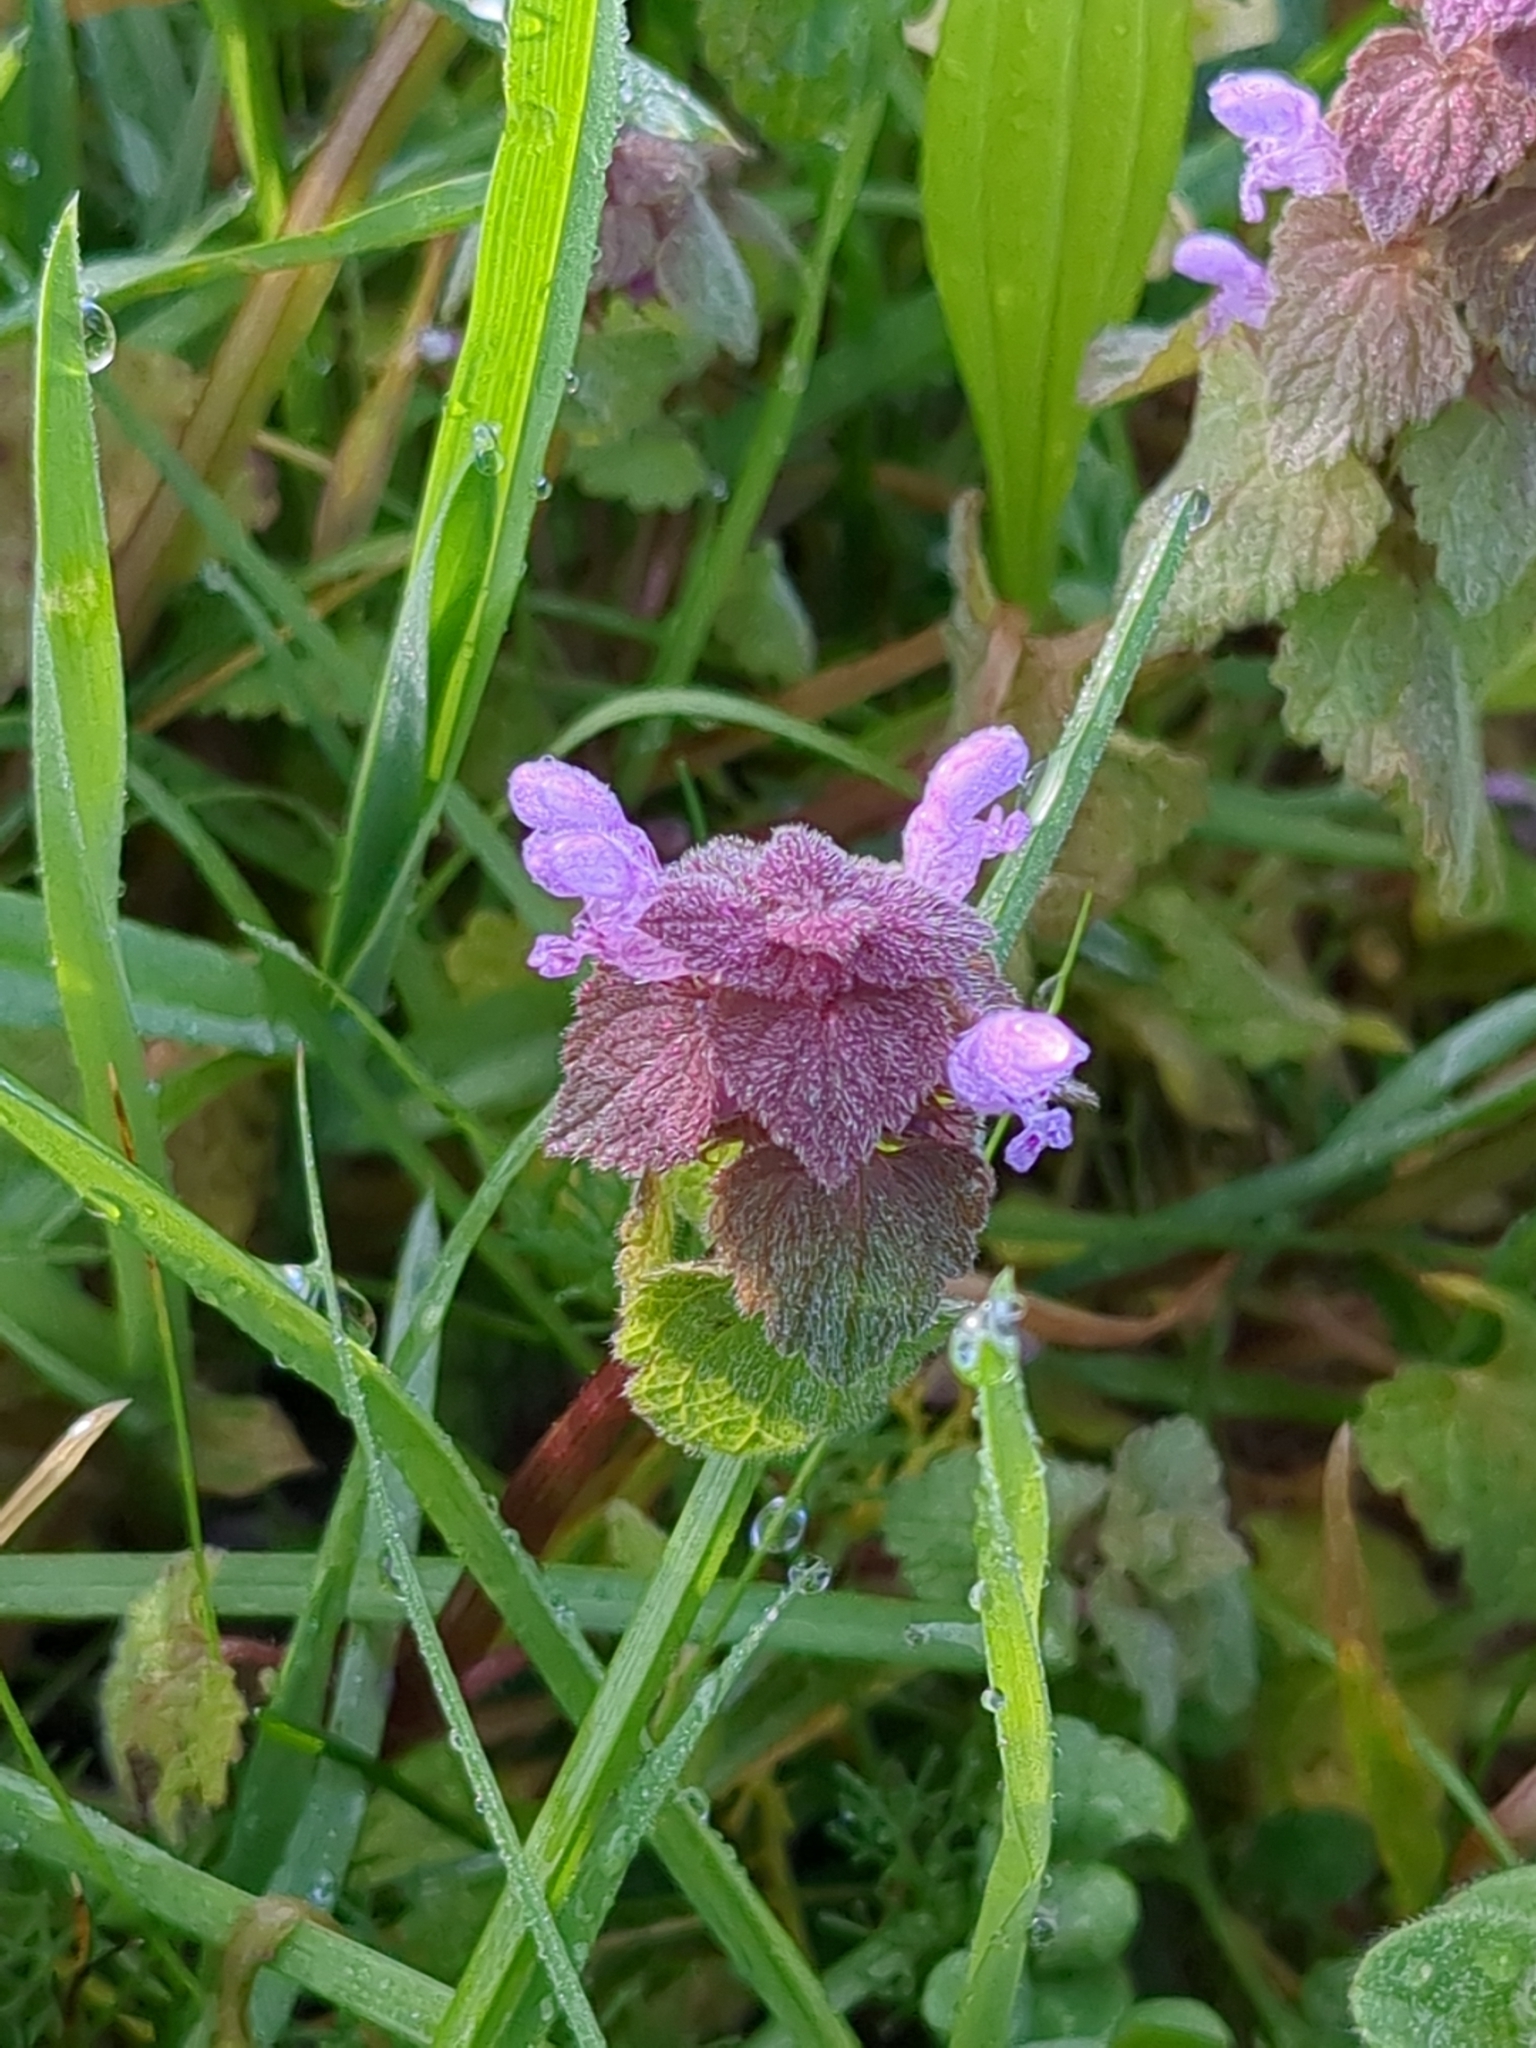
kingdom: Plantae
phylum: Tracheophyta
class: Magnoliopsida
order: Lamiales
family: Lamiaceae
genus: Lamium
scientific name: Lamium purpureum
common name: Red dead-nettle
